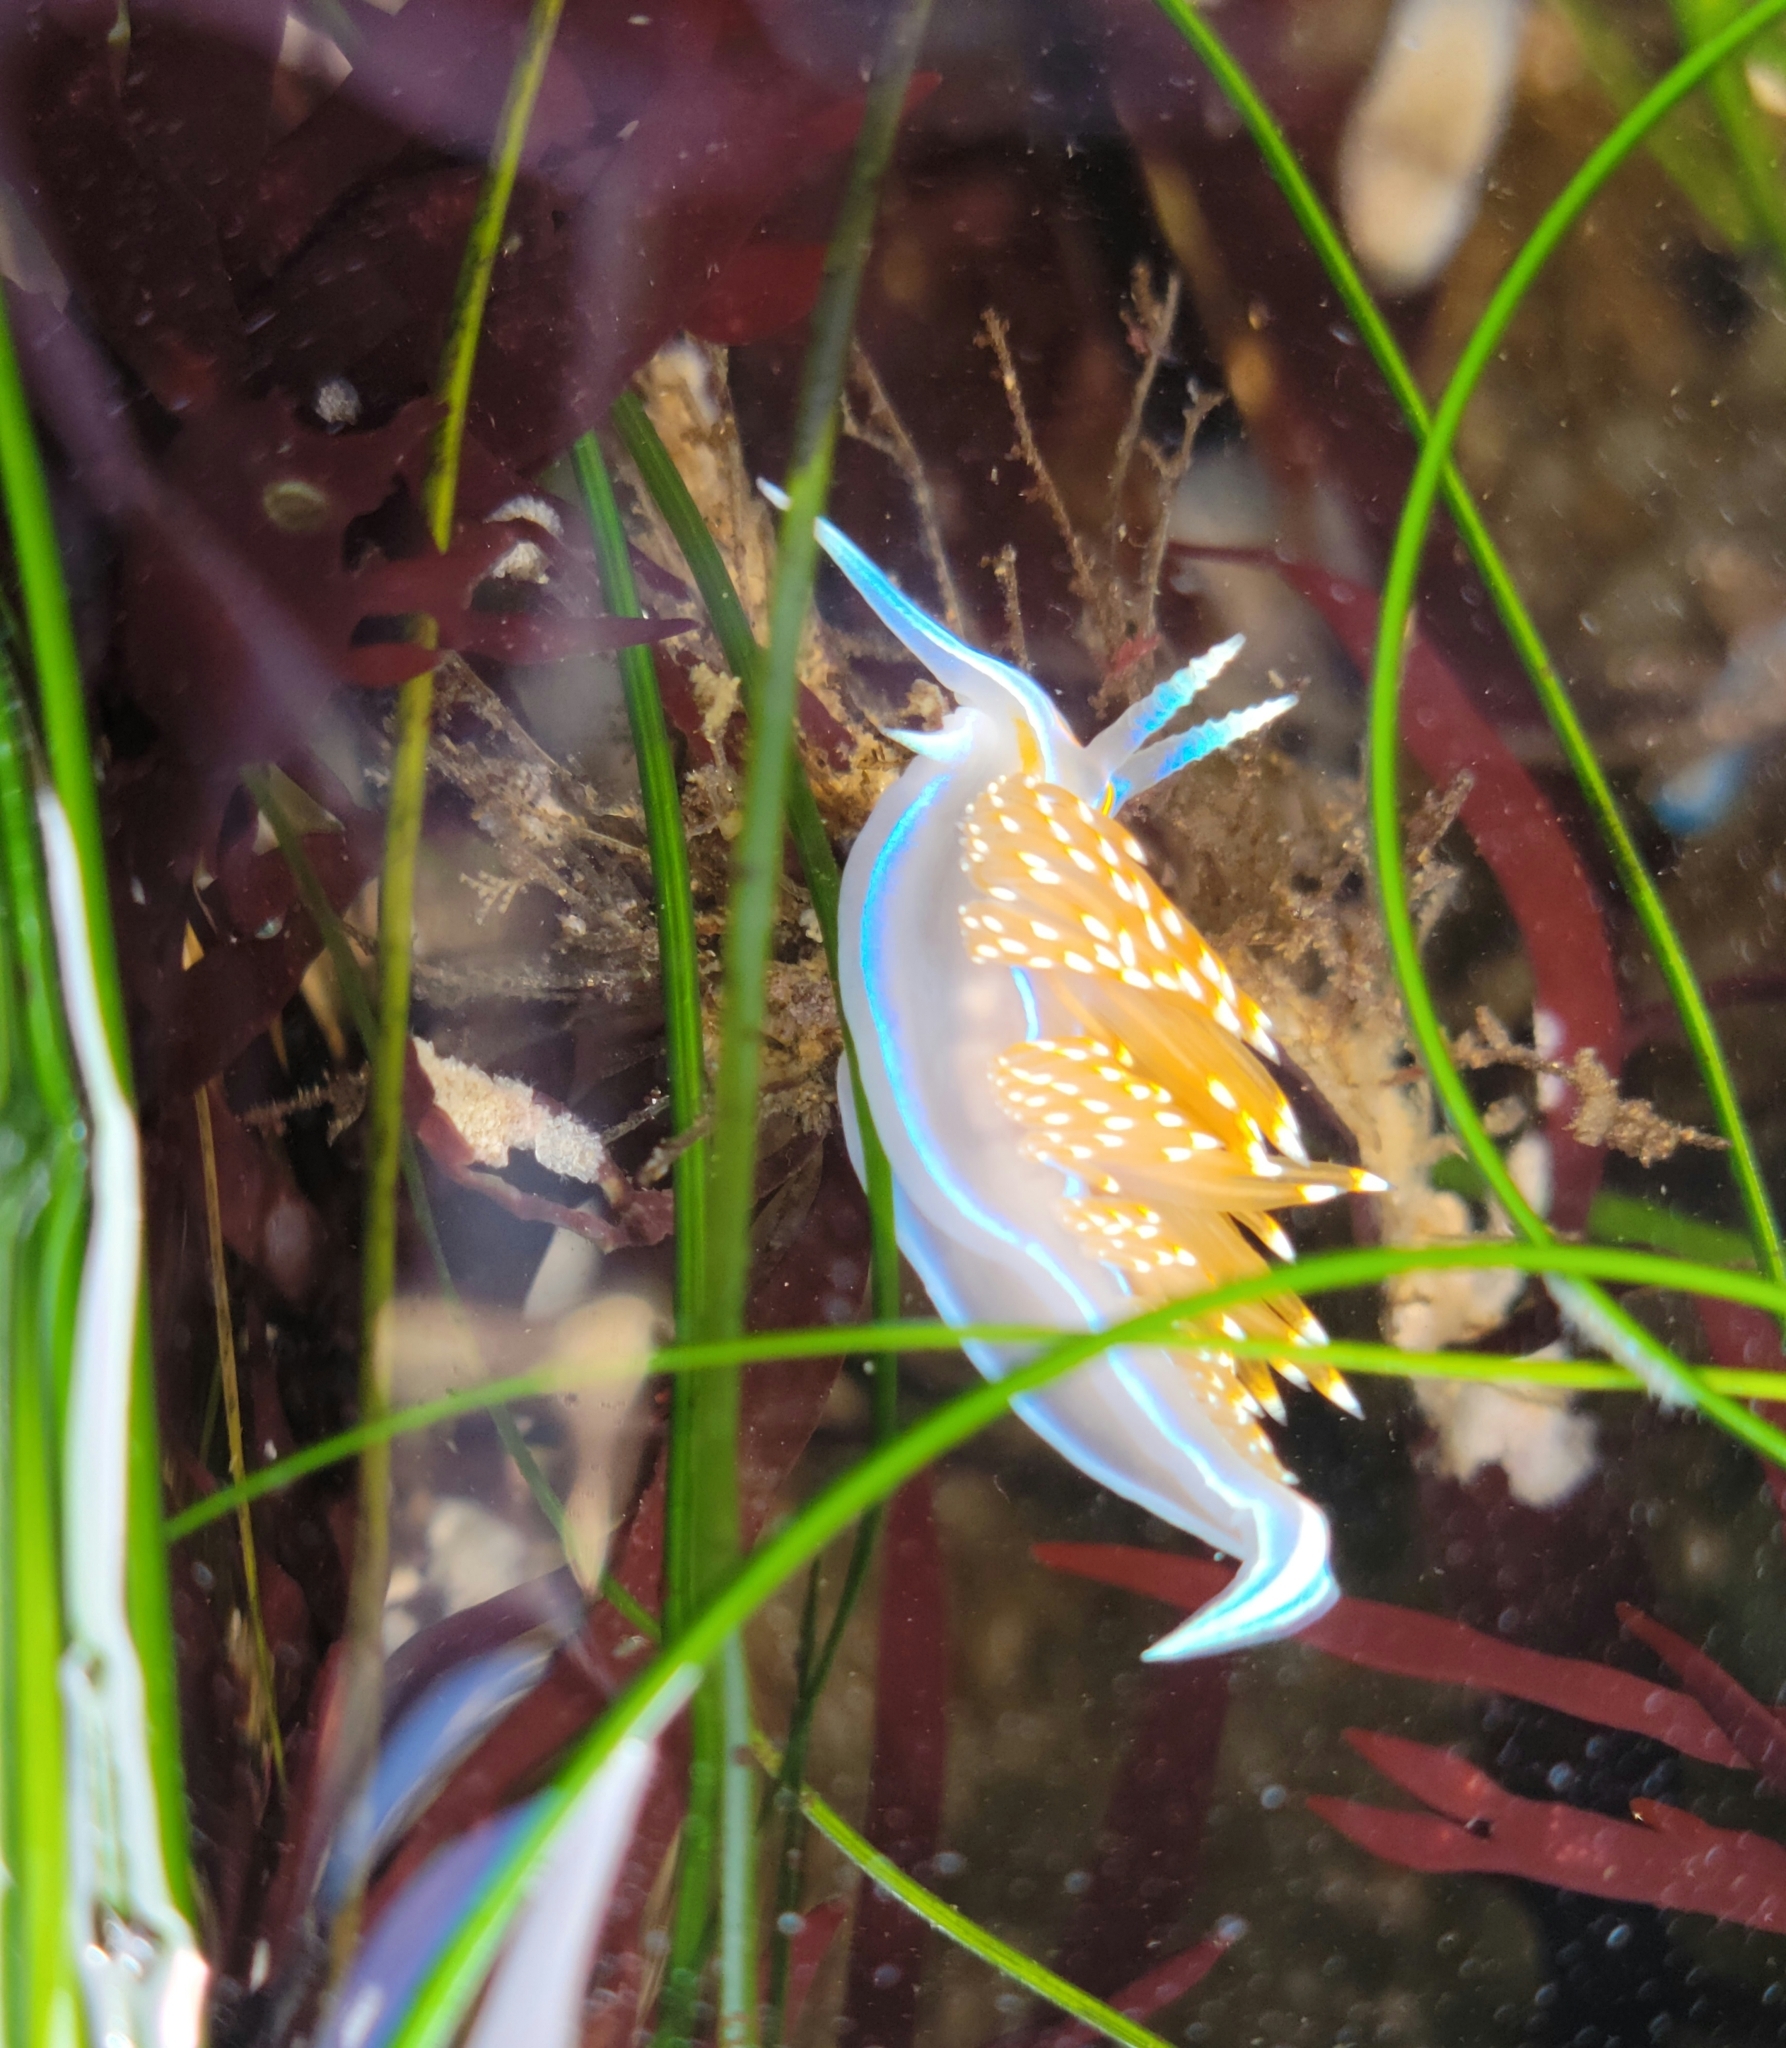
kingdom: Animalia
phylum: Mollusca
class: Gastropoda
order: Nudibranchia
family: Myrrhinidae
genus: Hermissenda
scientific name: Hermissenda opalescens
